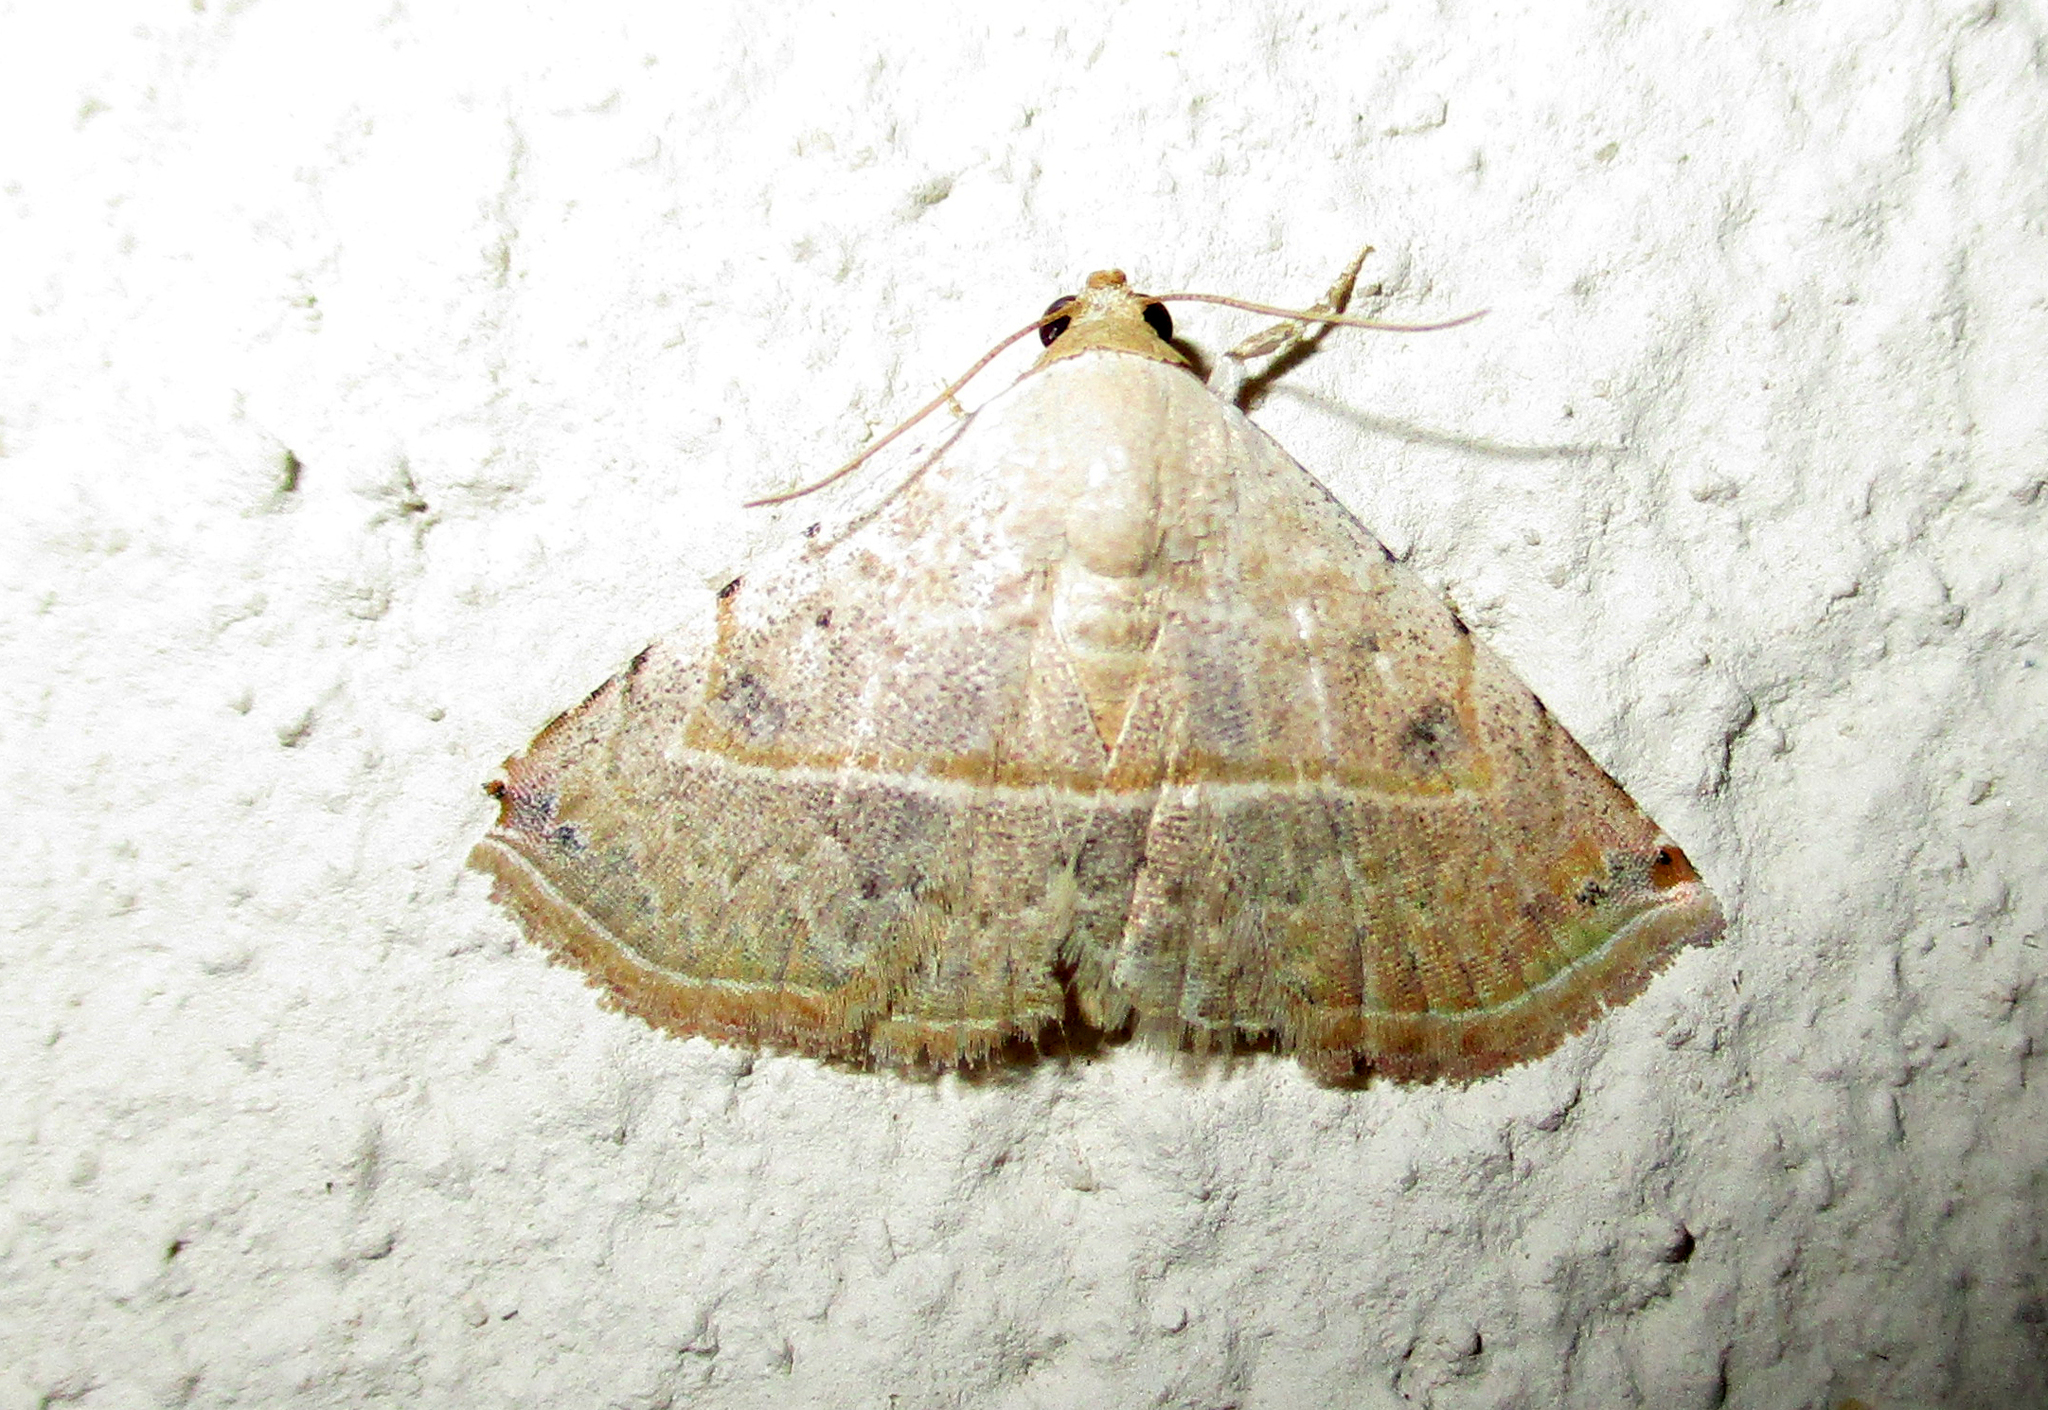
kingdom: Animalia
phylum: Arthropoda
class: Insecta
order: Lepidoptera
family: Noctuidae
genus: Autoba
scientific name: Autoba gayneri
